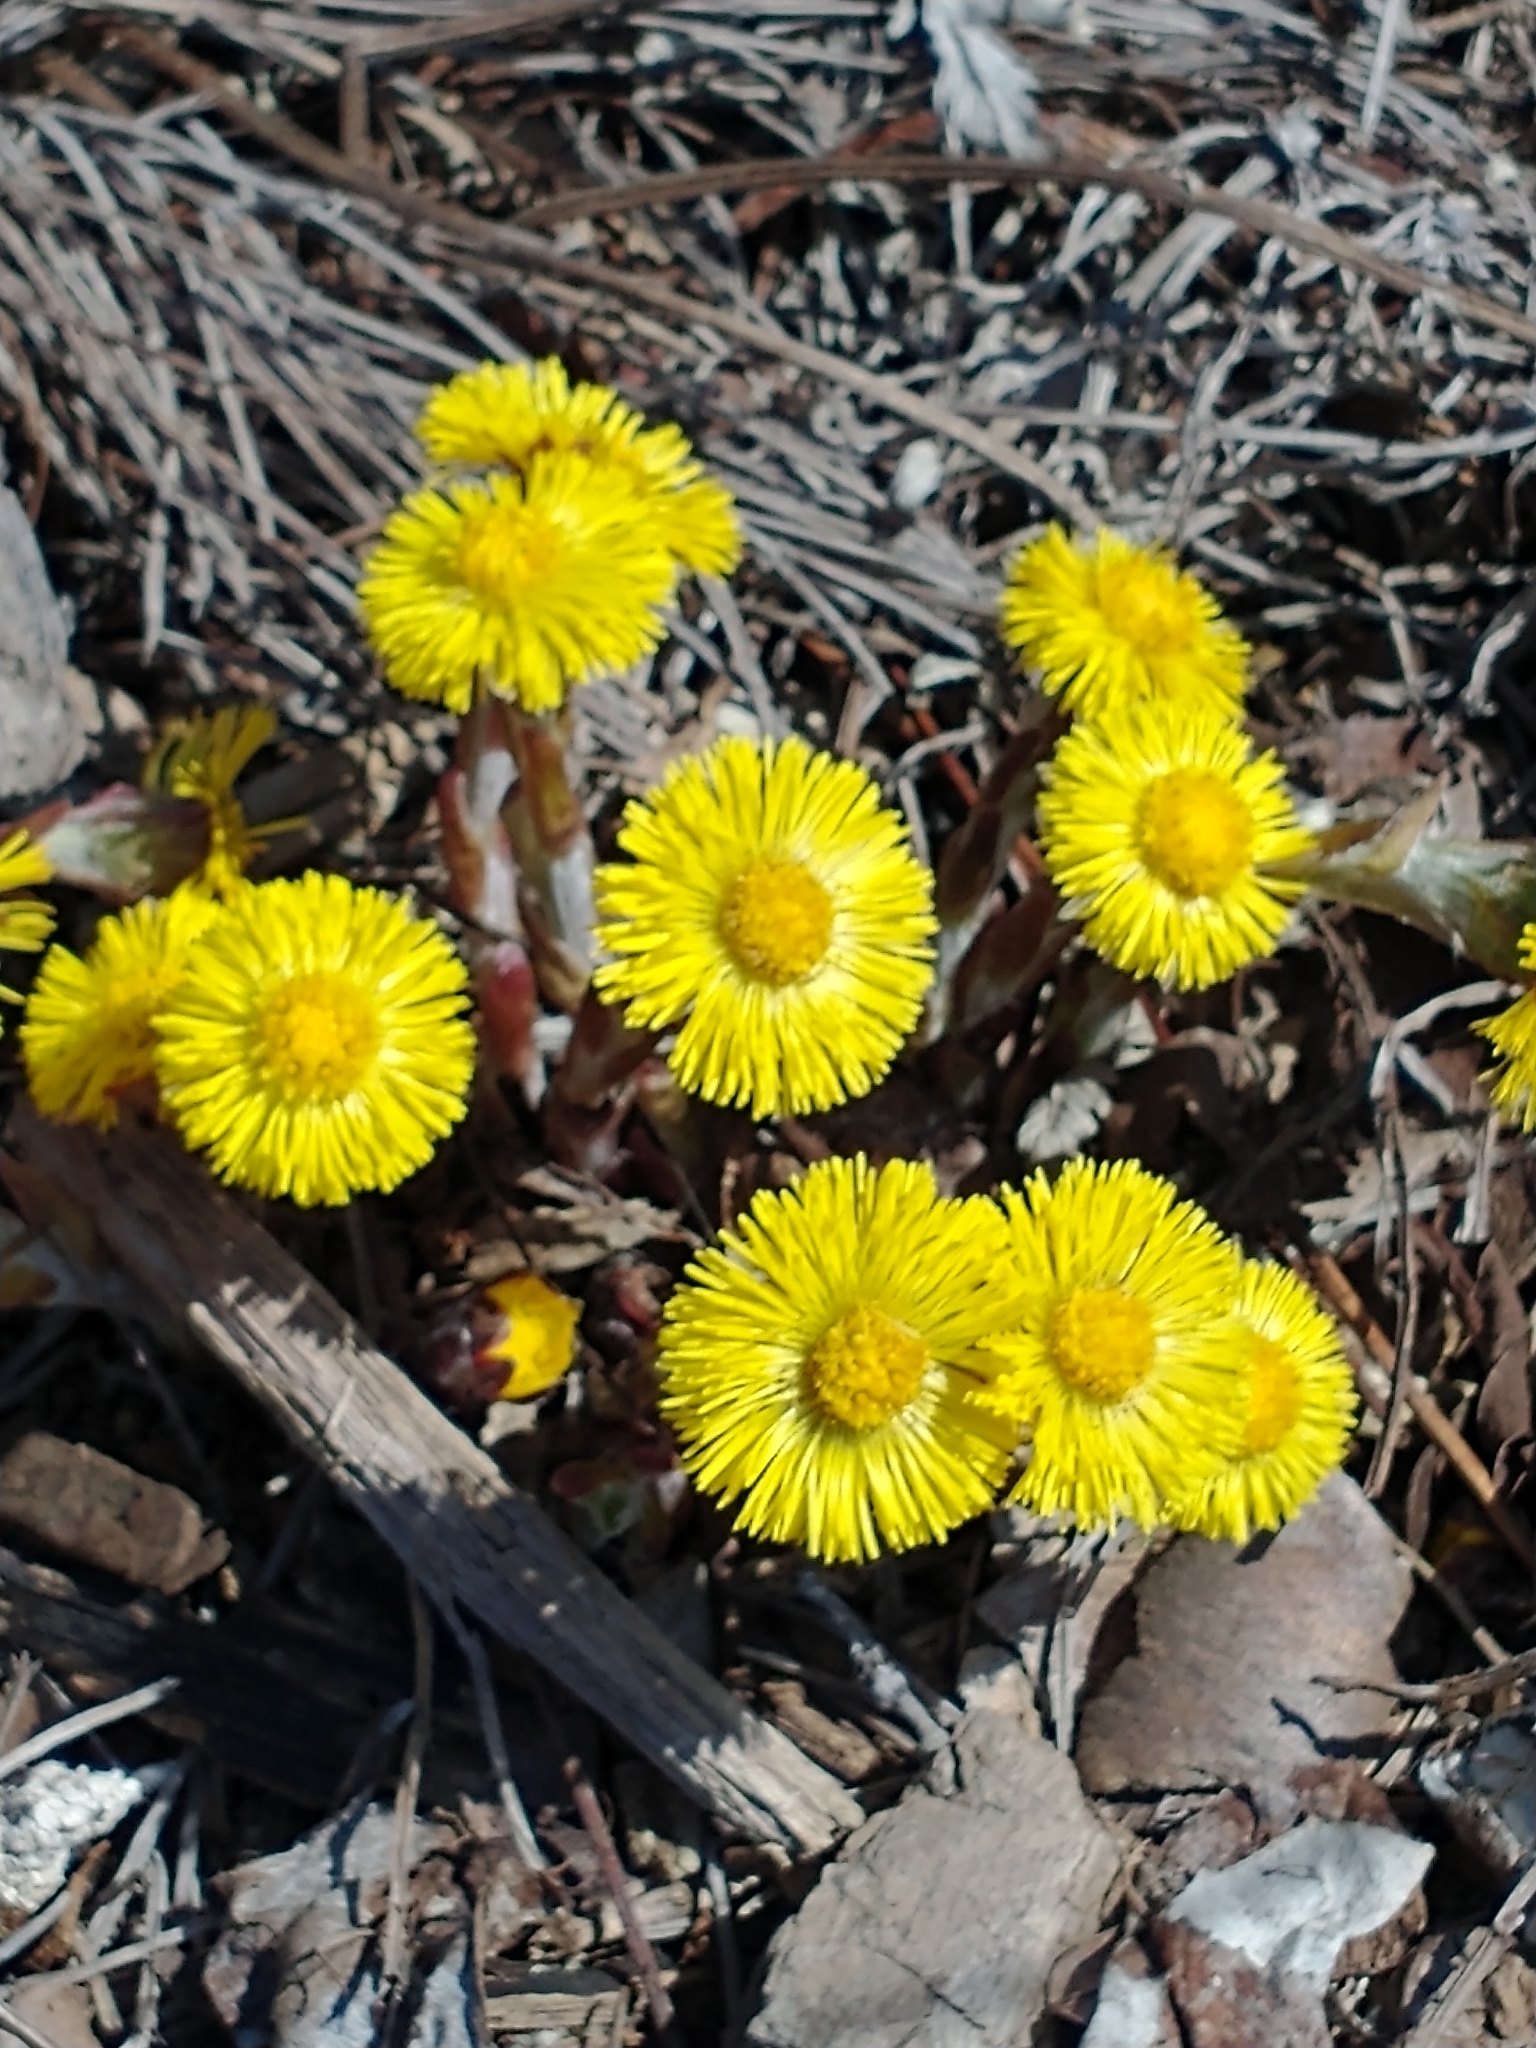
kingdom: Plantae
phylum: Tracheophyta
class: Magnoliopsida
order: Asterales
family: Asteraceae
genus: Tussilago
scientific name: Tussilago farfara
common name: Coltsfoot
